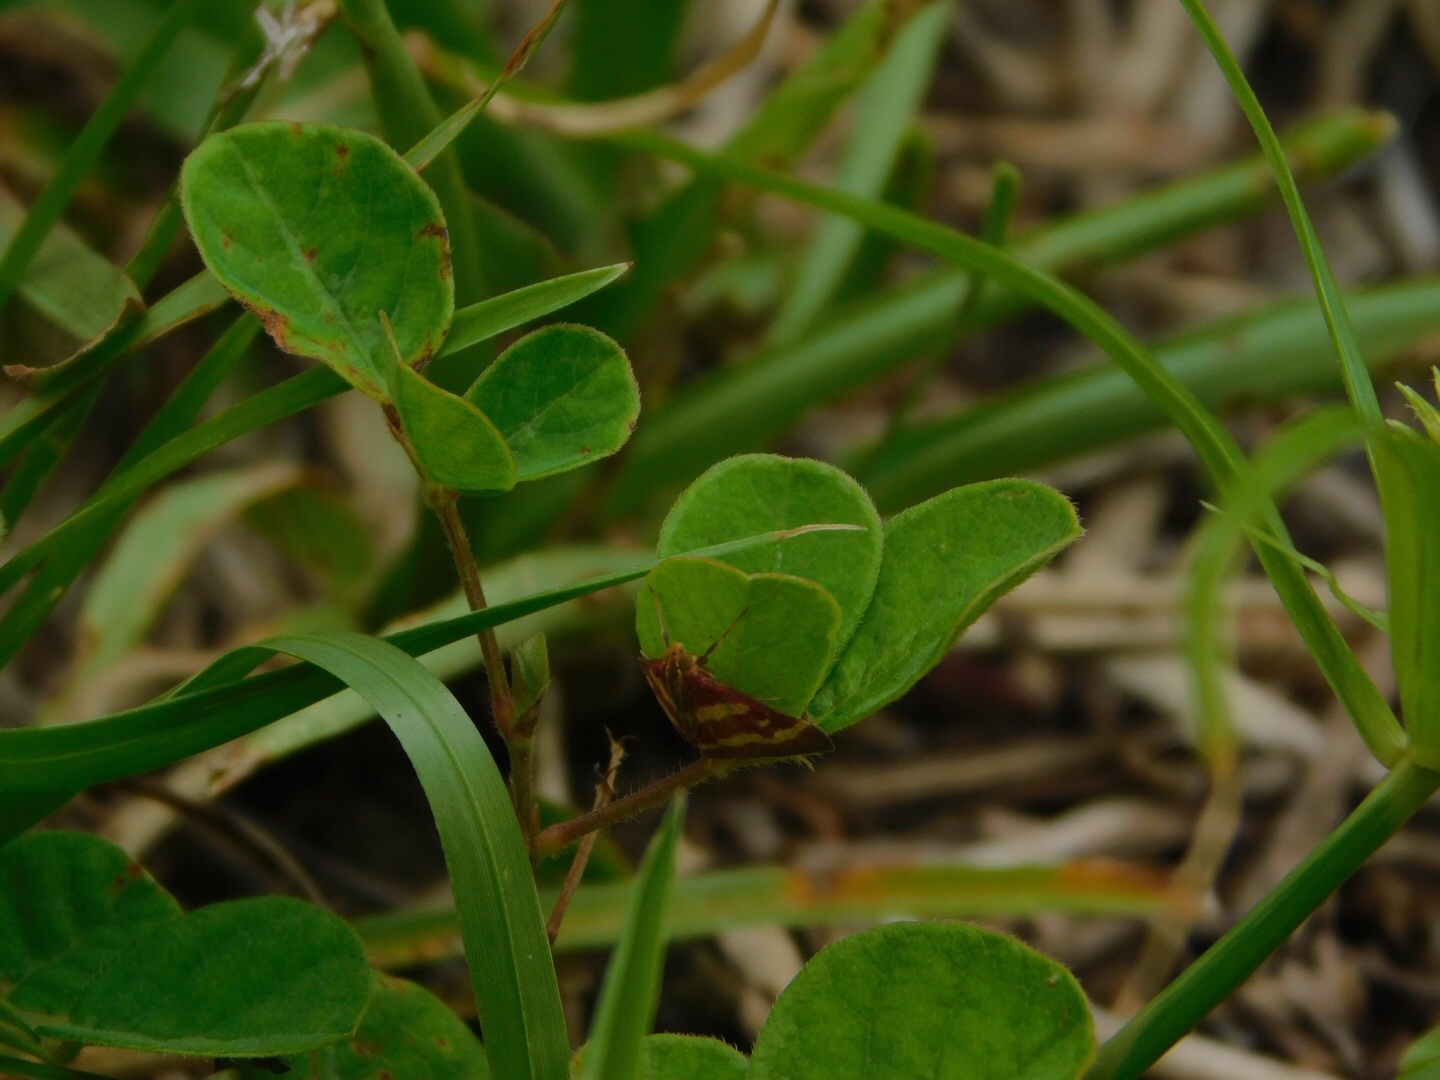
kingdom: Animalia
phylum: Arthropoda
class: Insecta
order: Lepidoptera
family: Crambidae
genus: Pyrausta
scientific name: Pyrausta tyralis
